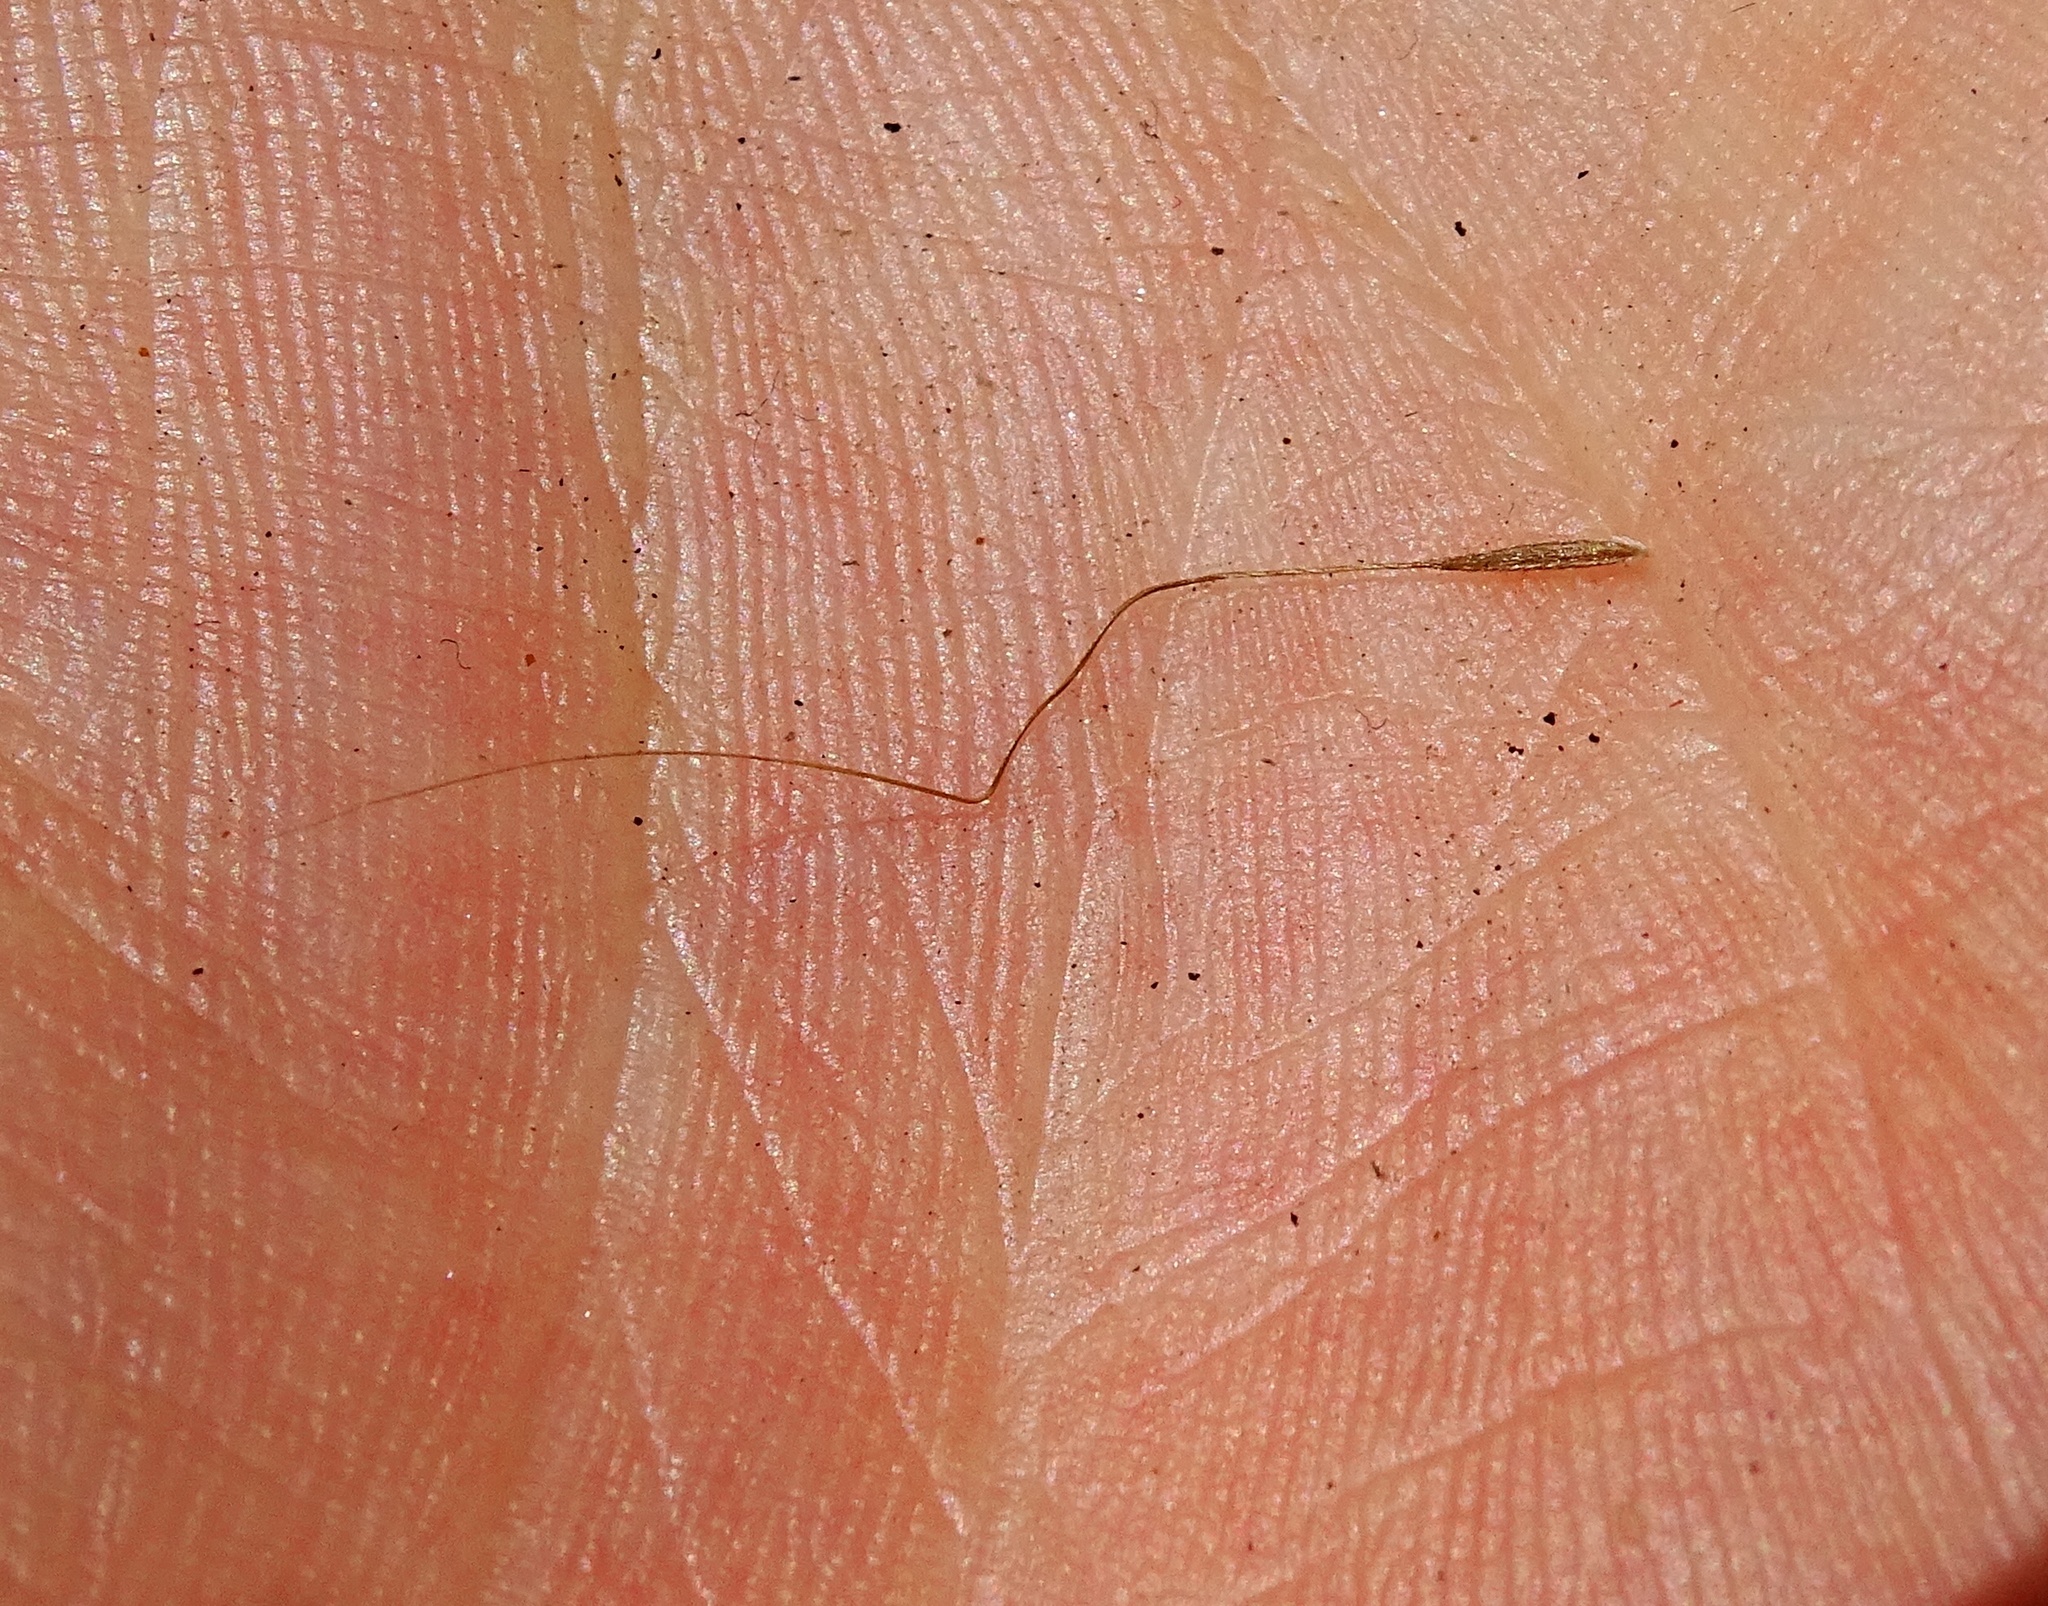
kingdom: Plantae
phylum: Tracheophyta
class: Liliopsida
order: Poales
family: Poaceae
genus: Nassella
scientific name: Nassella lepida
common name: Foothill needlegrass
